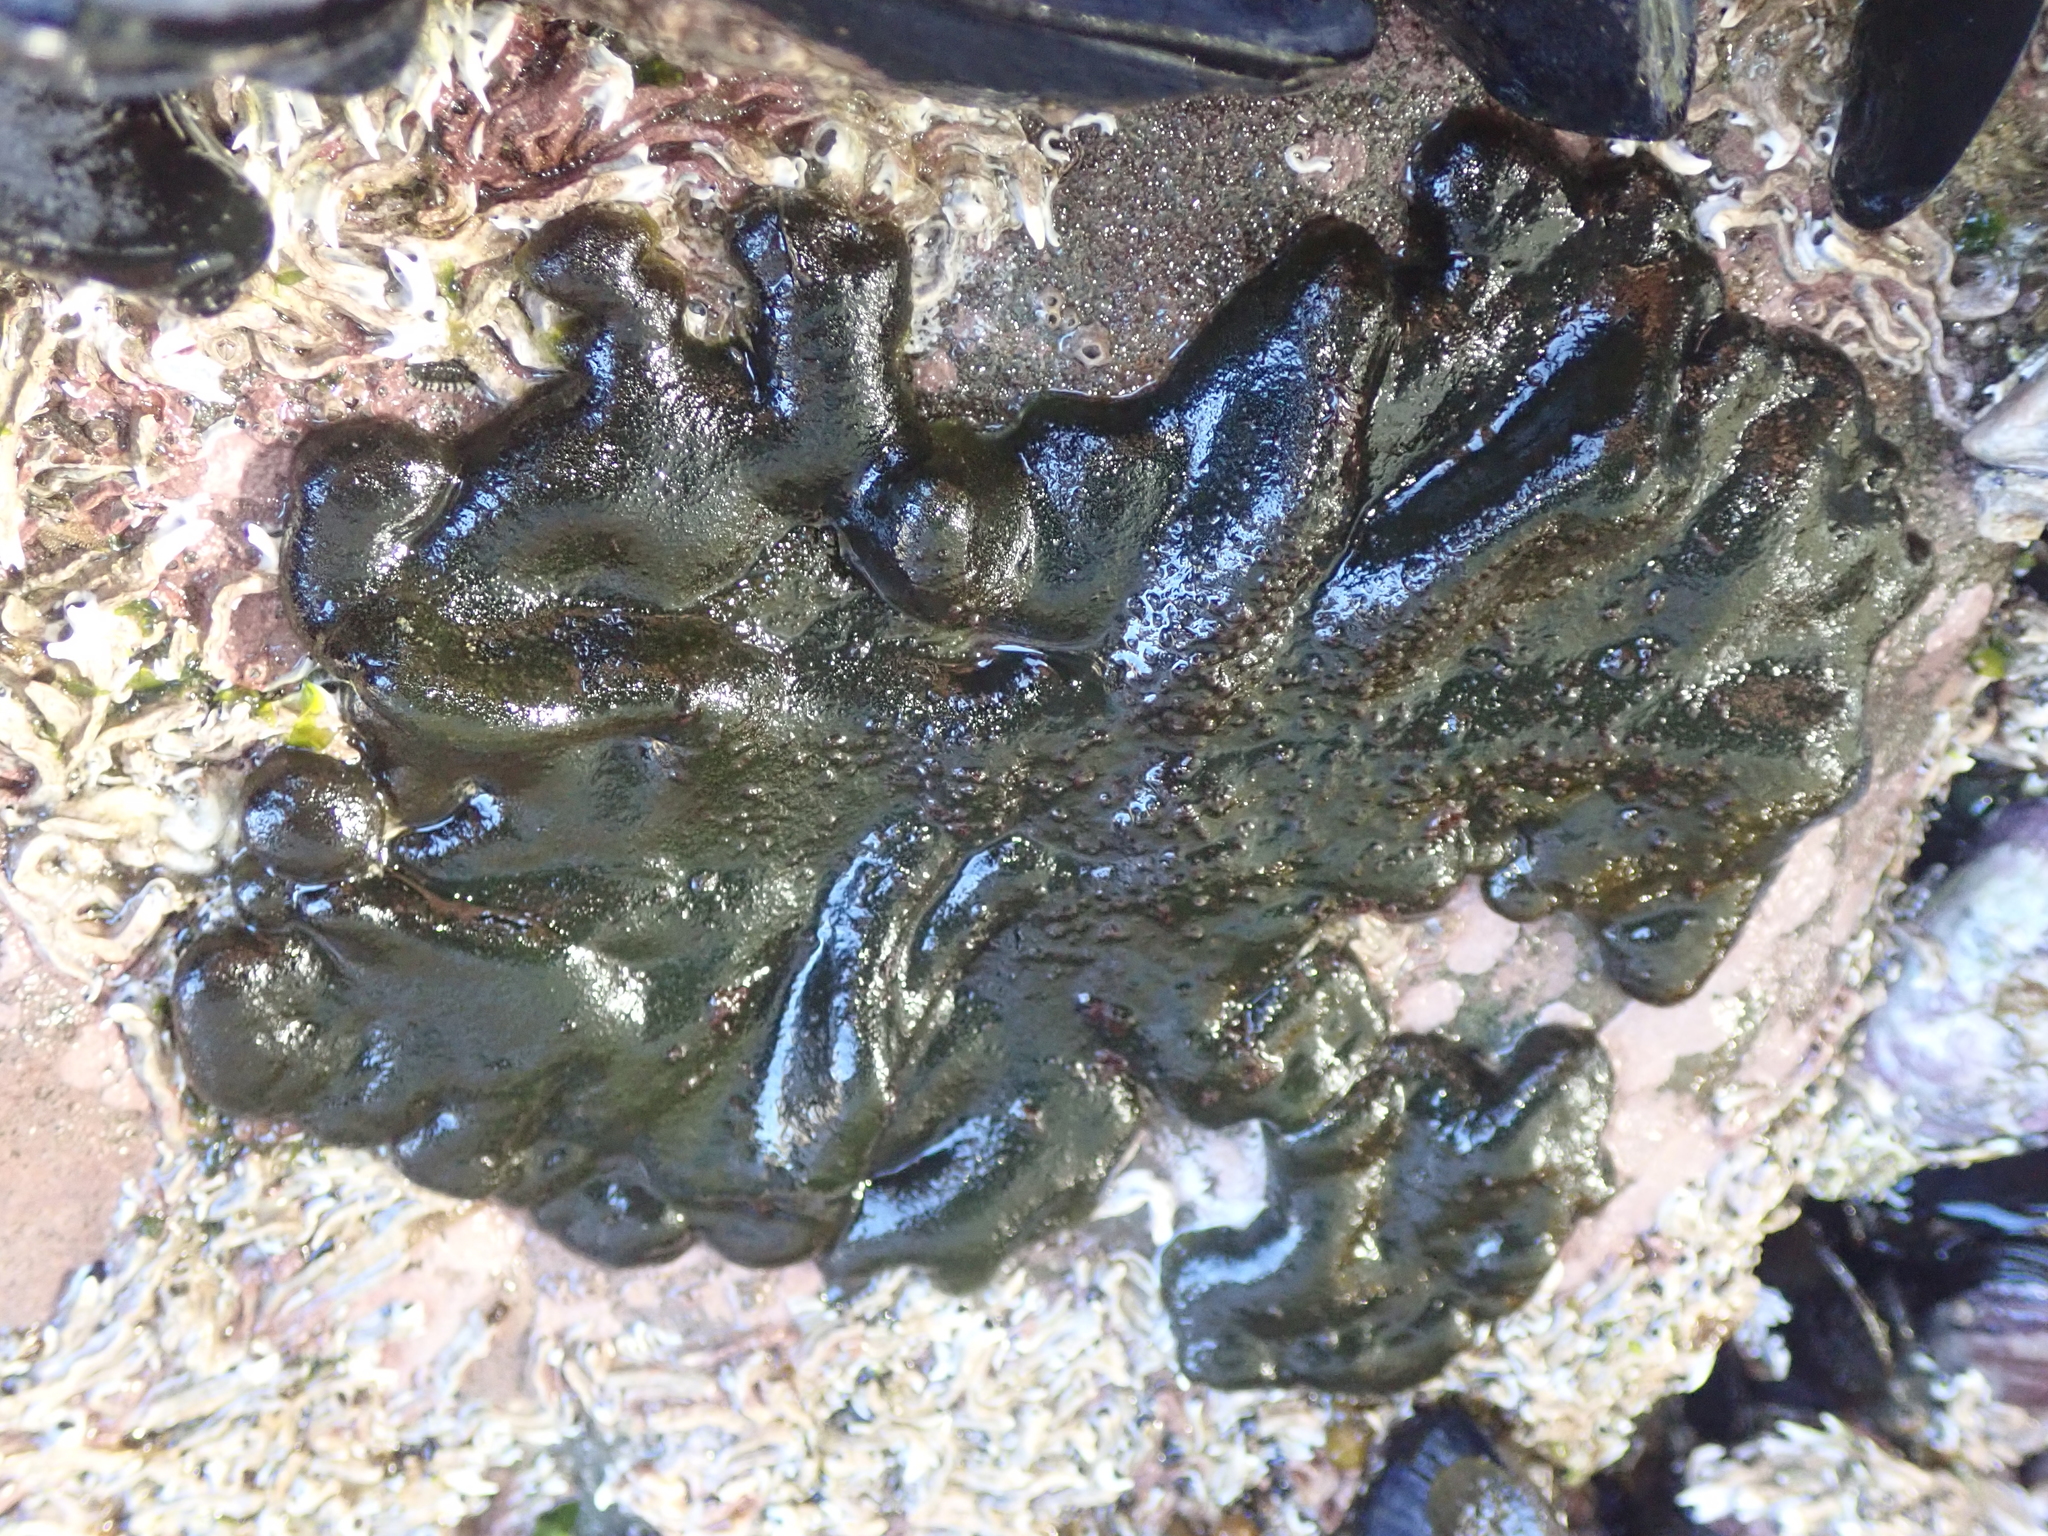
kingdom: Plantae
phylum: Chlorophyta
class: Ulvophyceae
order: Bryopsidales
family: Codiaceae
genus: Codium
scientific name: Codium convolutum
